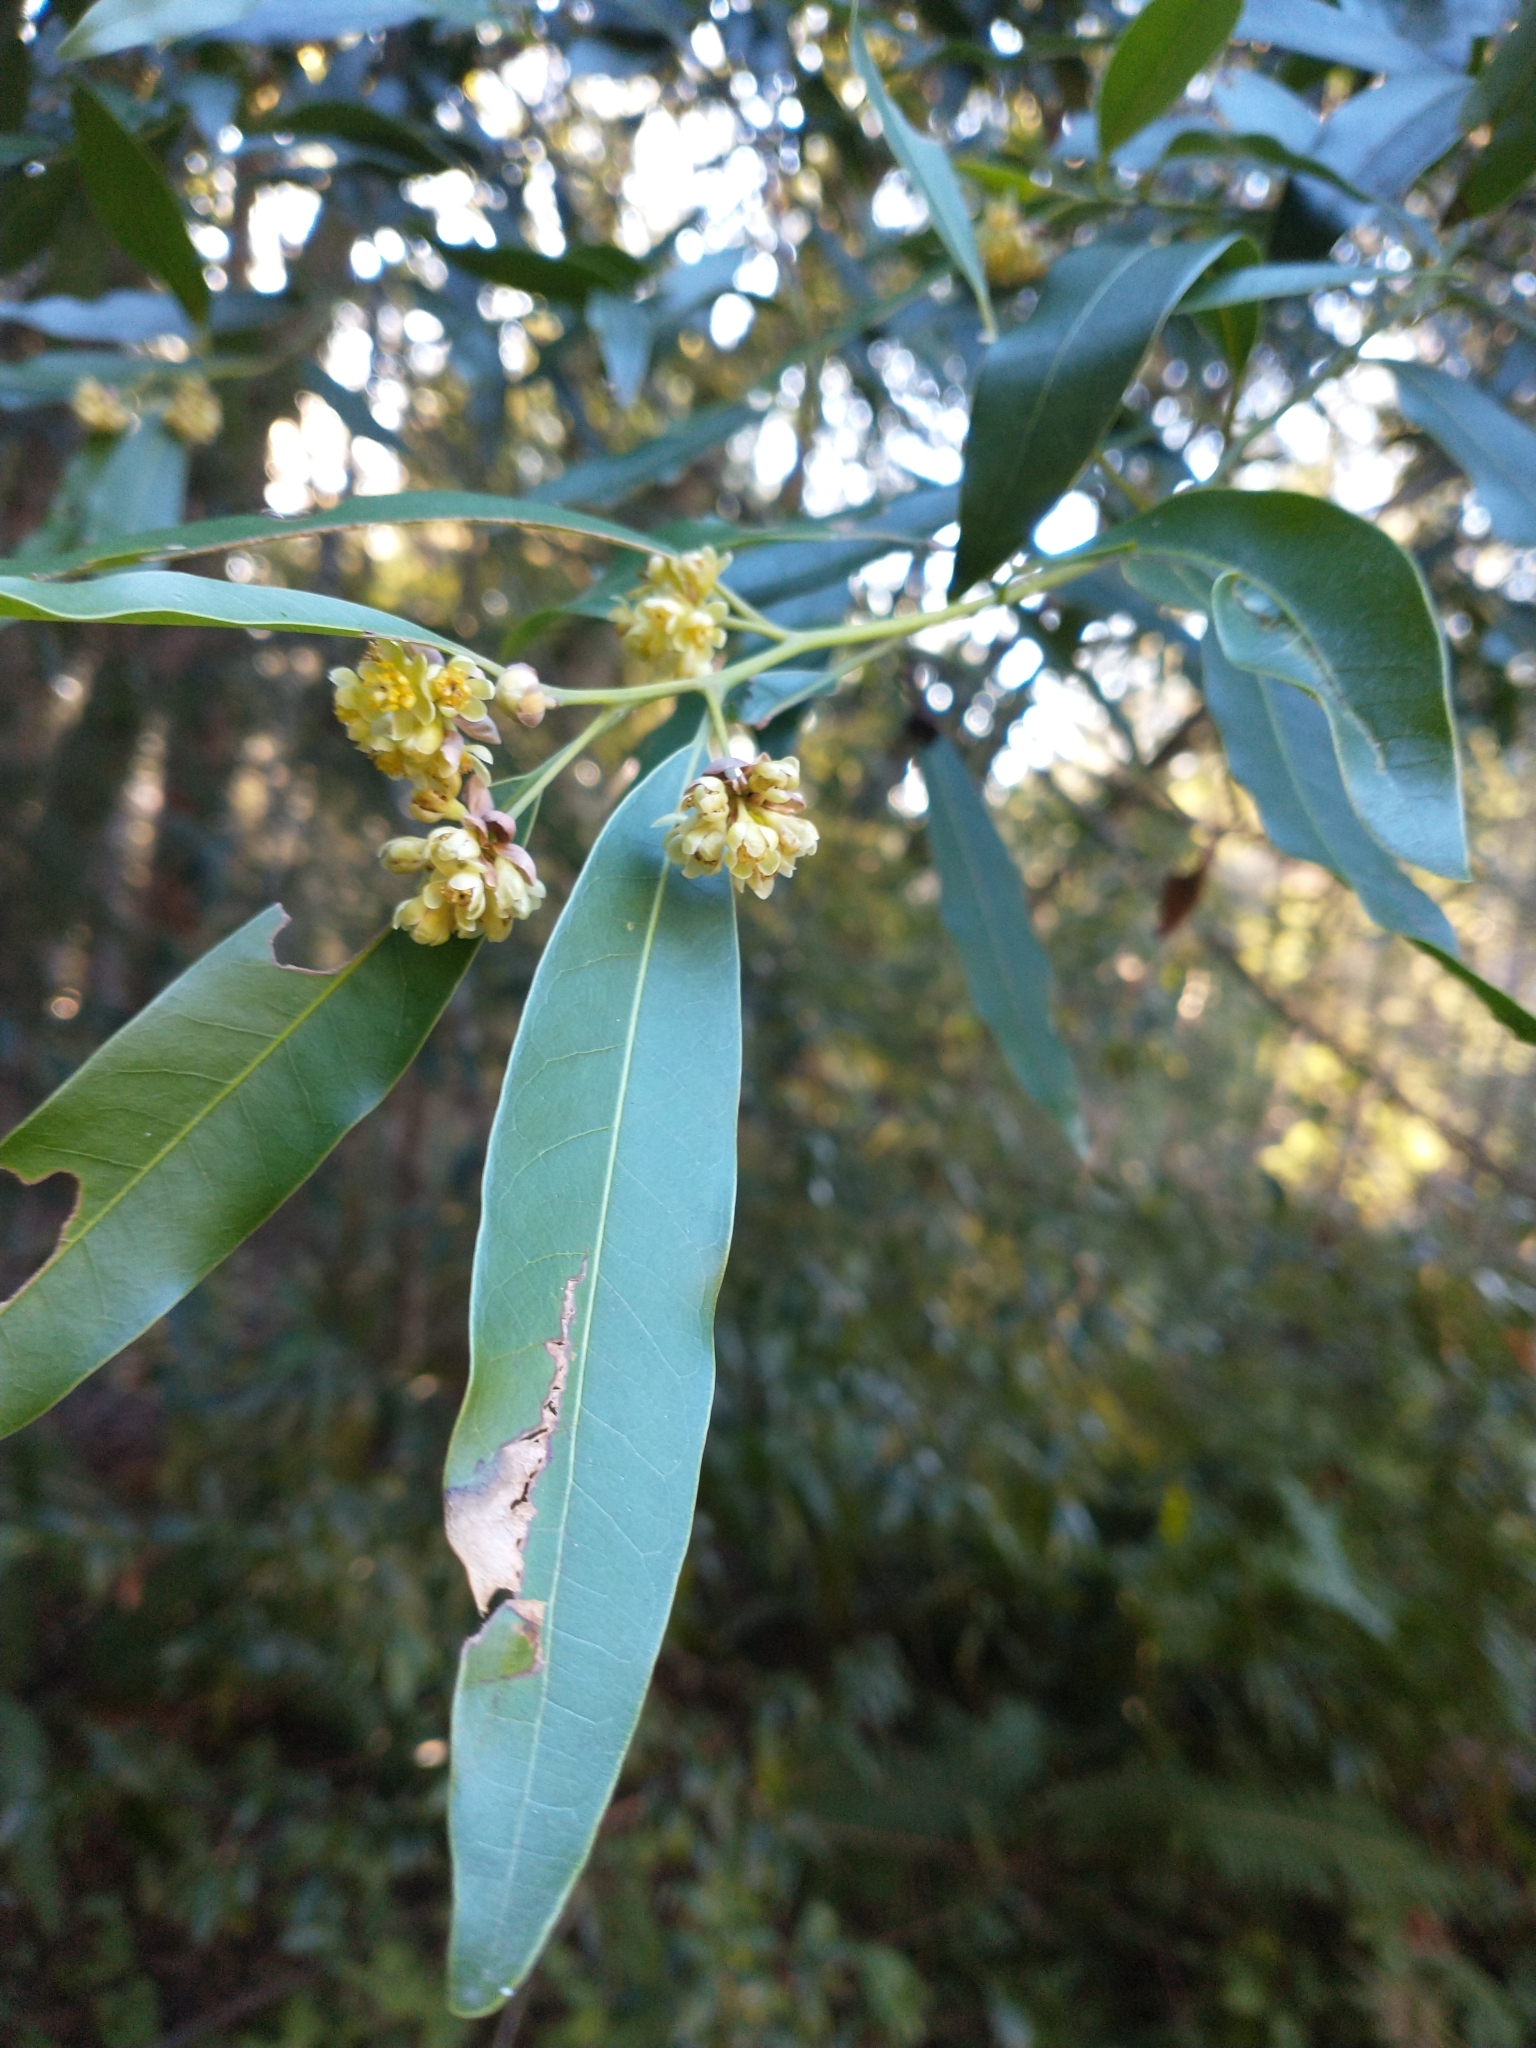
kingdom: Plantae
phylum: Tracheophyta
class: Magnoliopsida
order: Laurales
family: Lauraceae
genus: Umbellularia
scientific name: Umbellularia californica
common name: California bay
